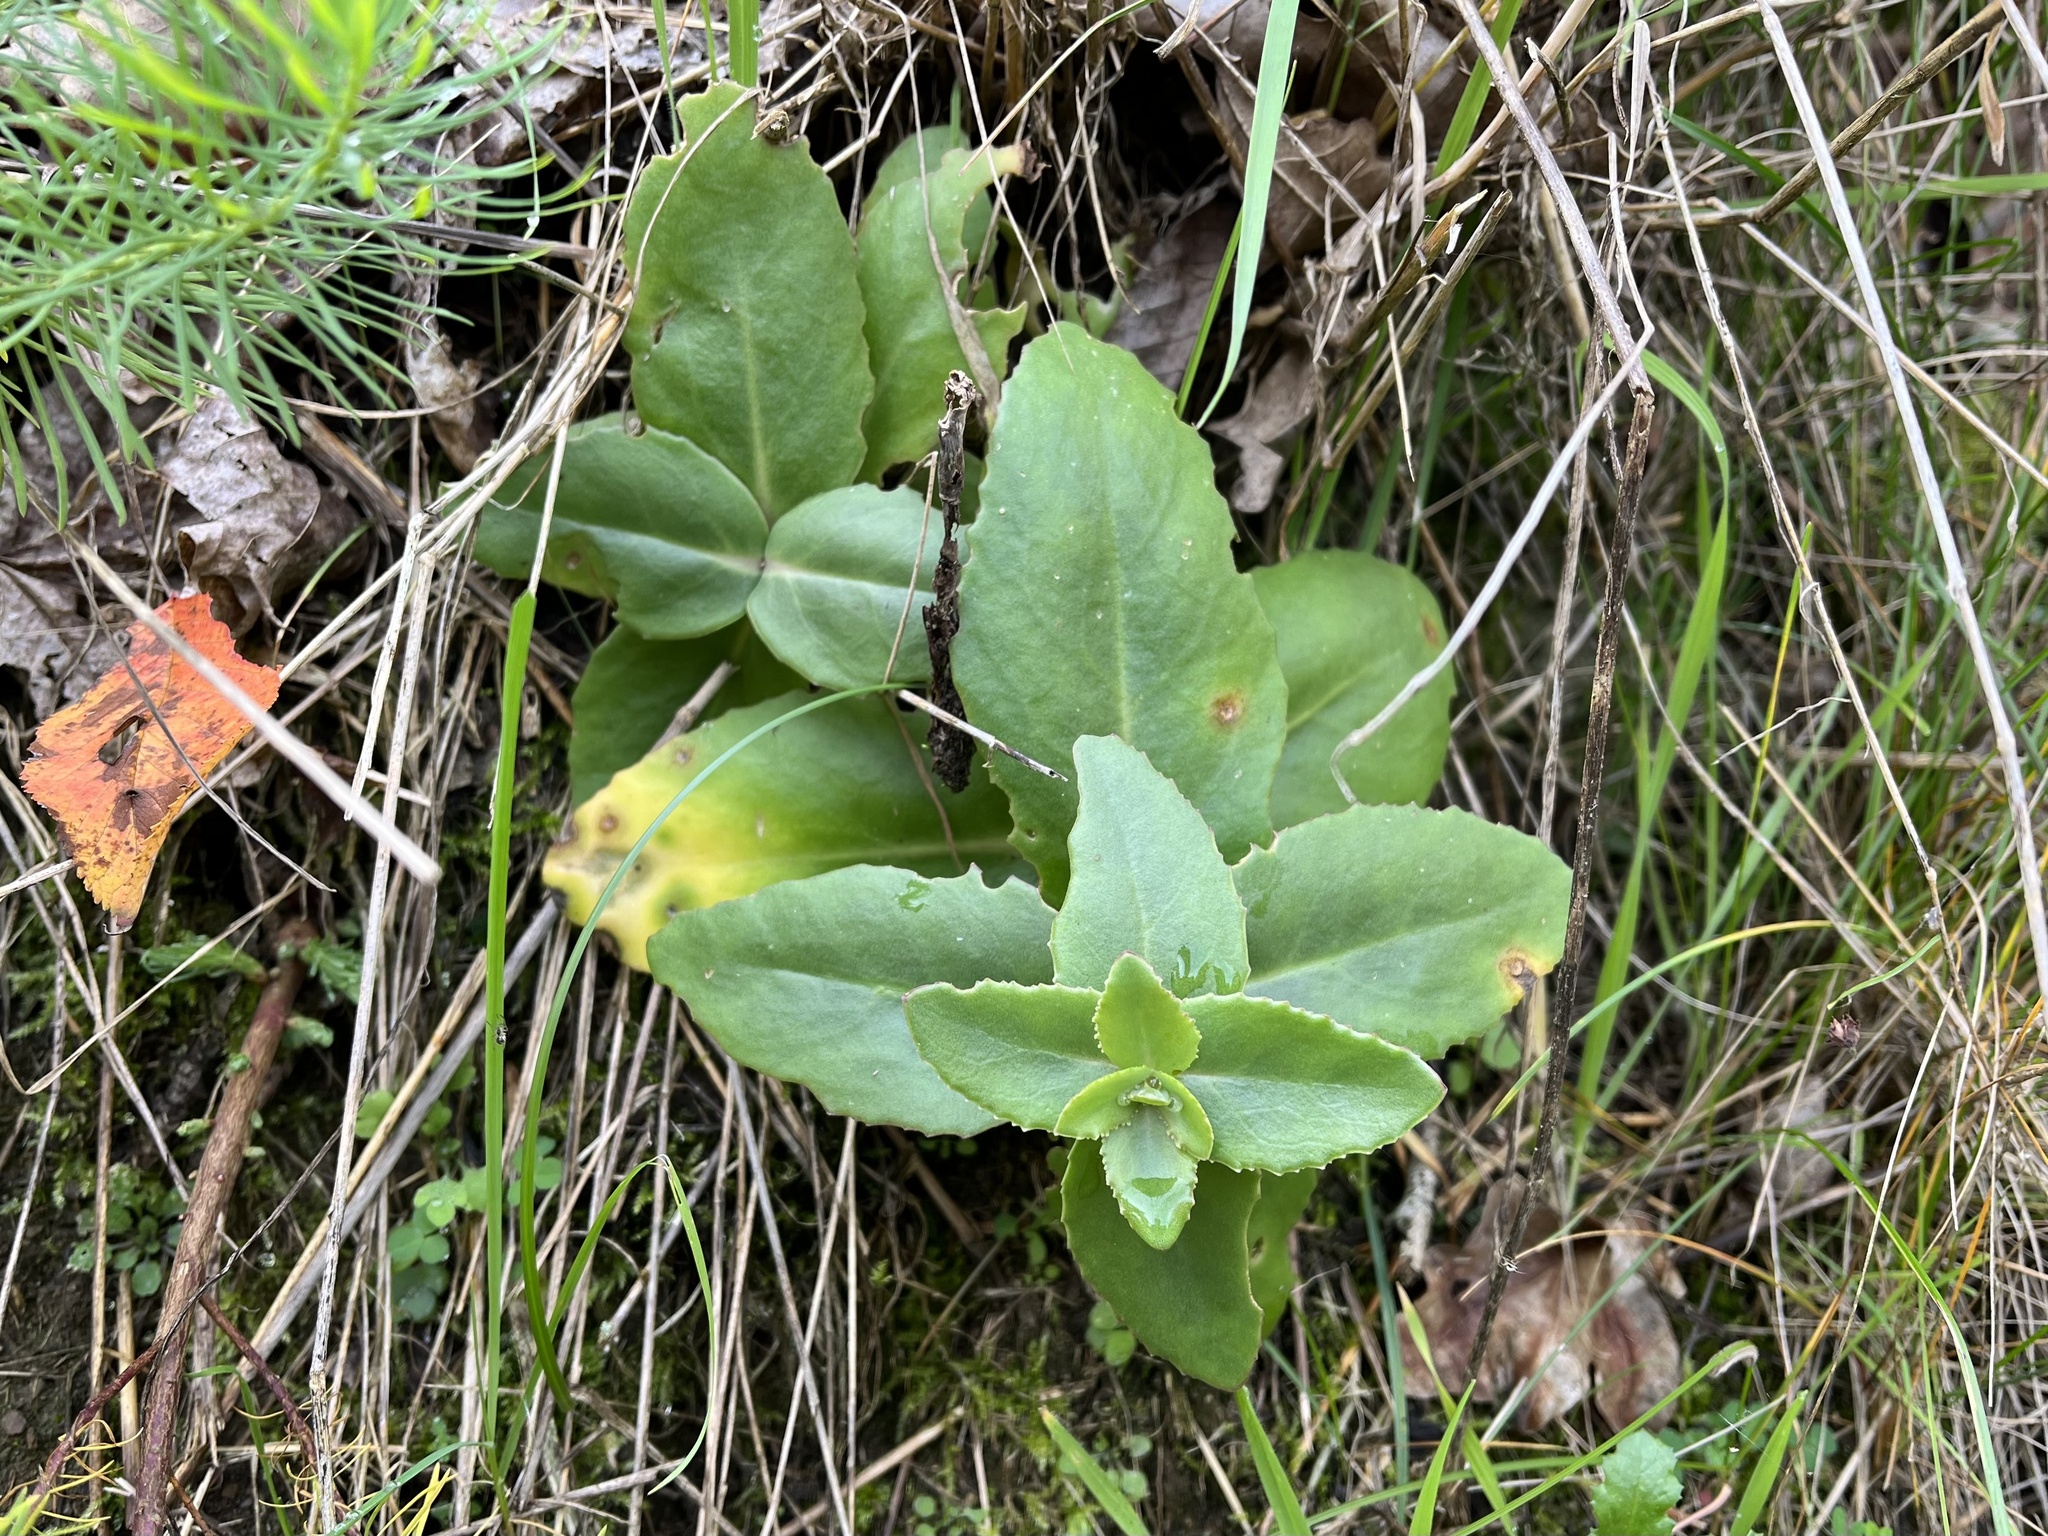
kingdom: Plantae
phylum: Tracheophyta
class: Magnoliopsida
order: Saxifragales
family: Crassulaceae
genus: Hylotelephium
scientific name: Hylotelephium maximum
